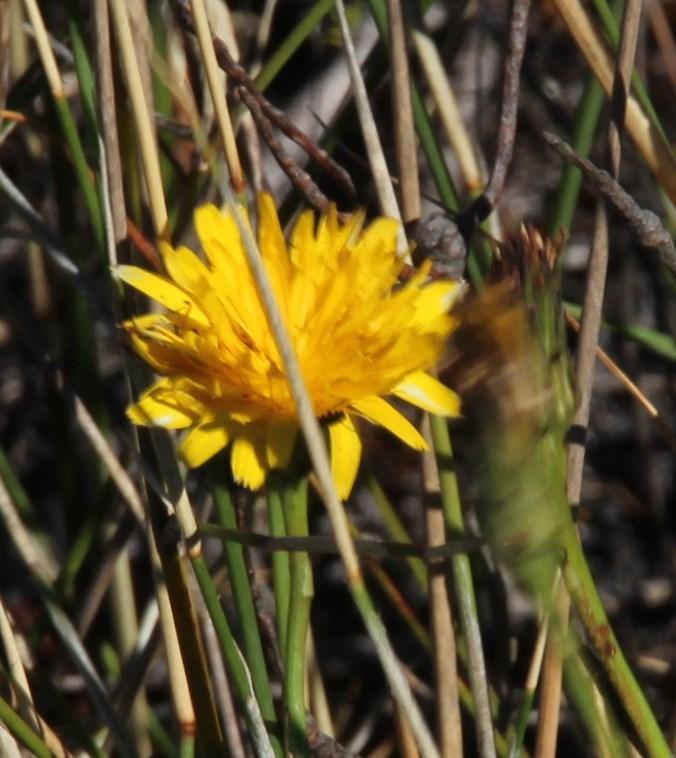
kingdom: Plantae
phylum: Tracheophyta
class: Magnoliopsida
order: Asterales
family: Asteraceae
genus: Hypochaeris
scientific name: Hypochaeris radicata
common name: Flatweed
